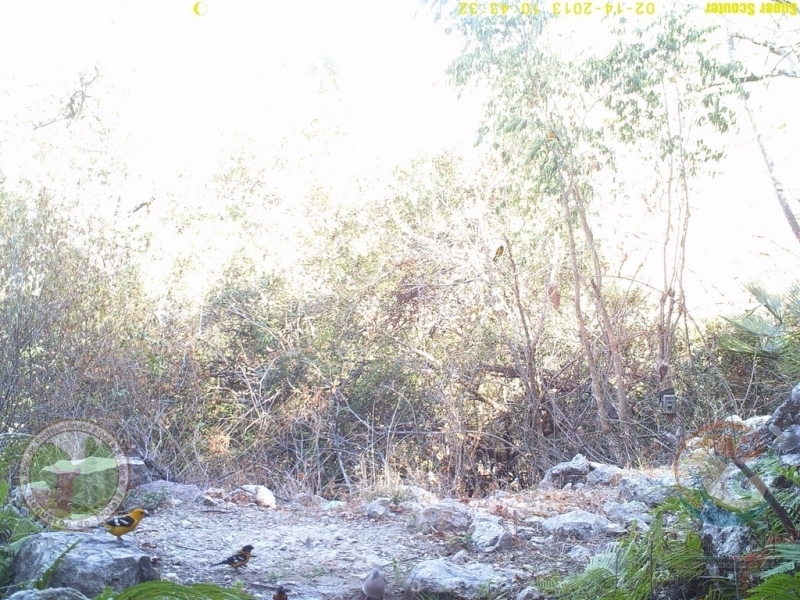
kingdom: Animalia
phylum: Chordata
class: Aves
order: Passeriformes
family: Cardinalidae
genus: Pheucticus
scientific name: Pheucticus chrysopeplus
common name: Yellow grosbeak
